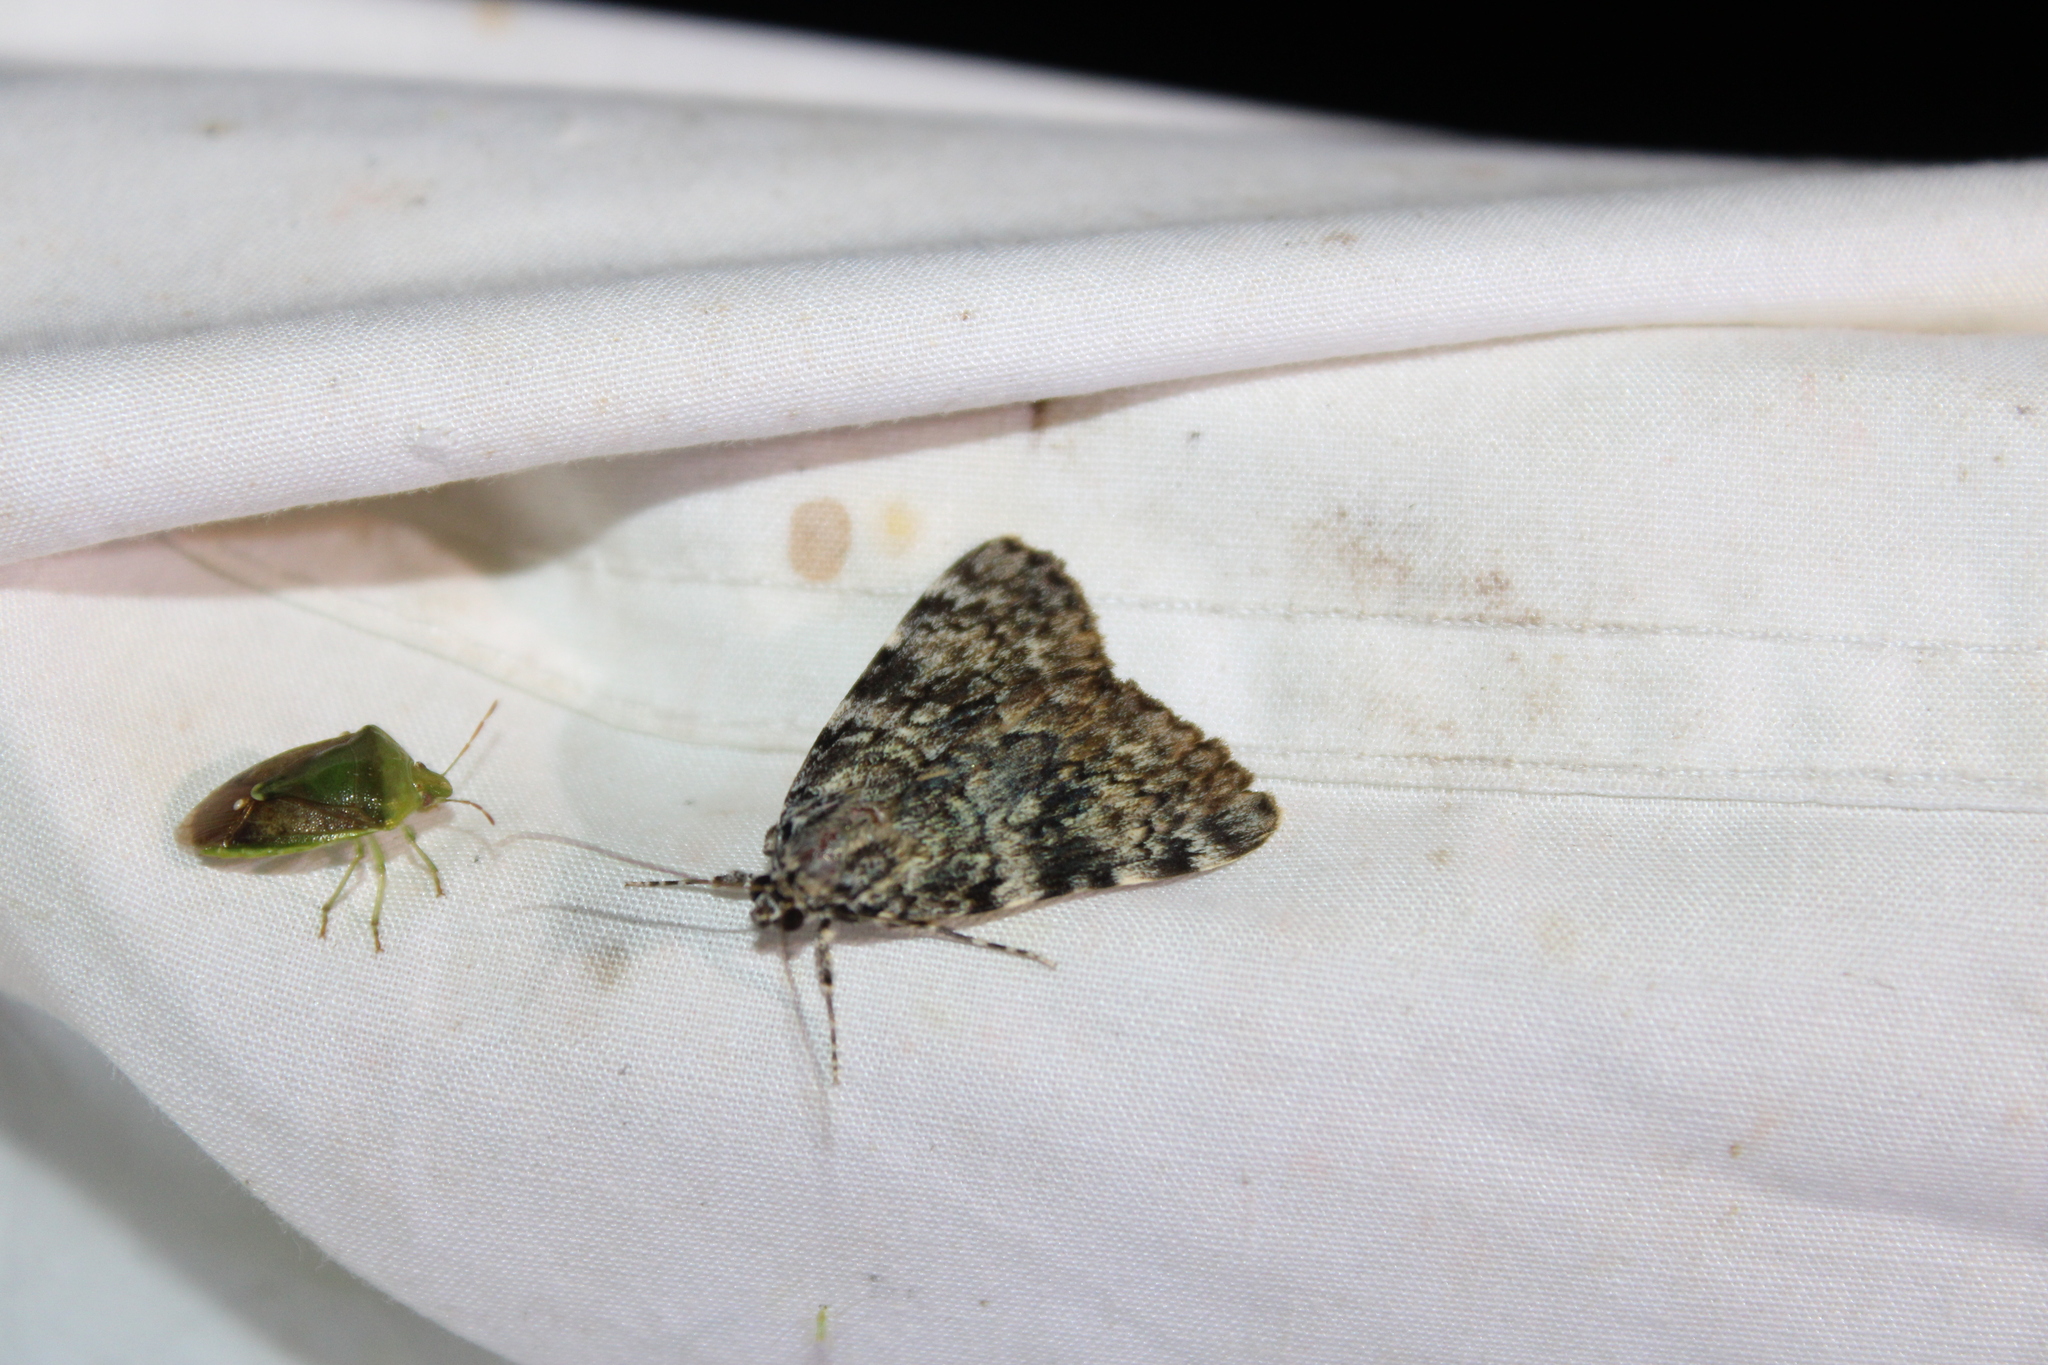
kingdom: Animalia
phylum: Arthropoda
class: Insecta
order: Lepidoptera
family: Erebidae
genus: Catocala
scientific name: Catocala lineella
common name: Little lined underwing
